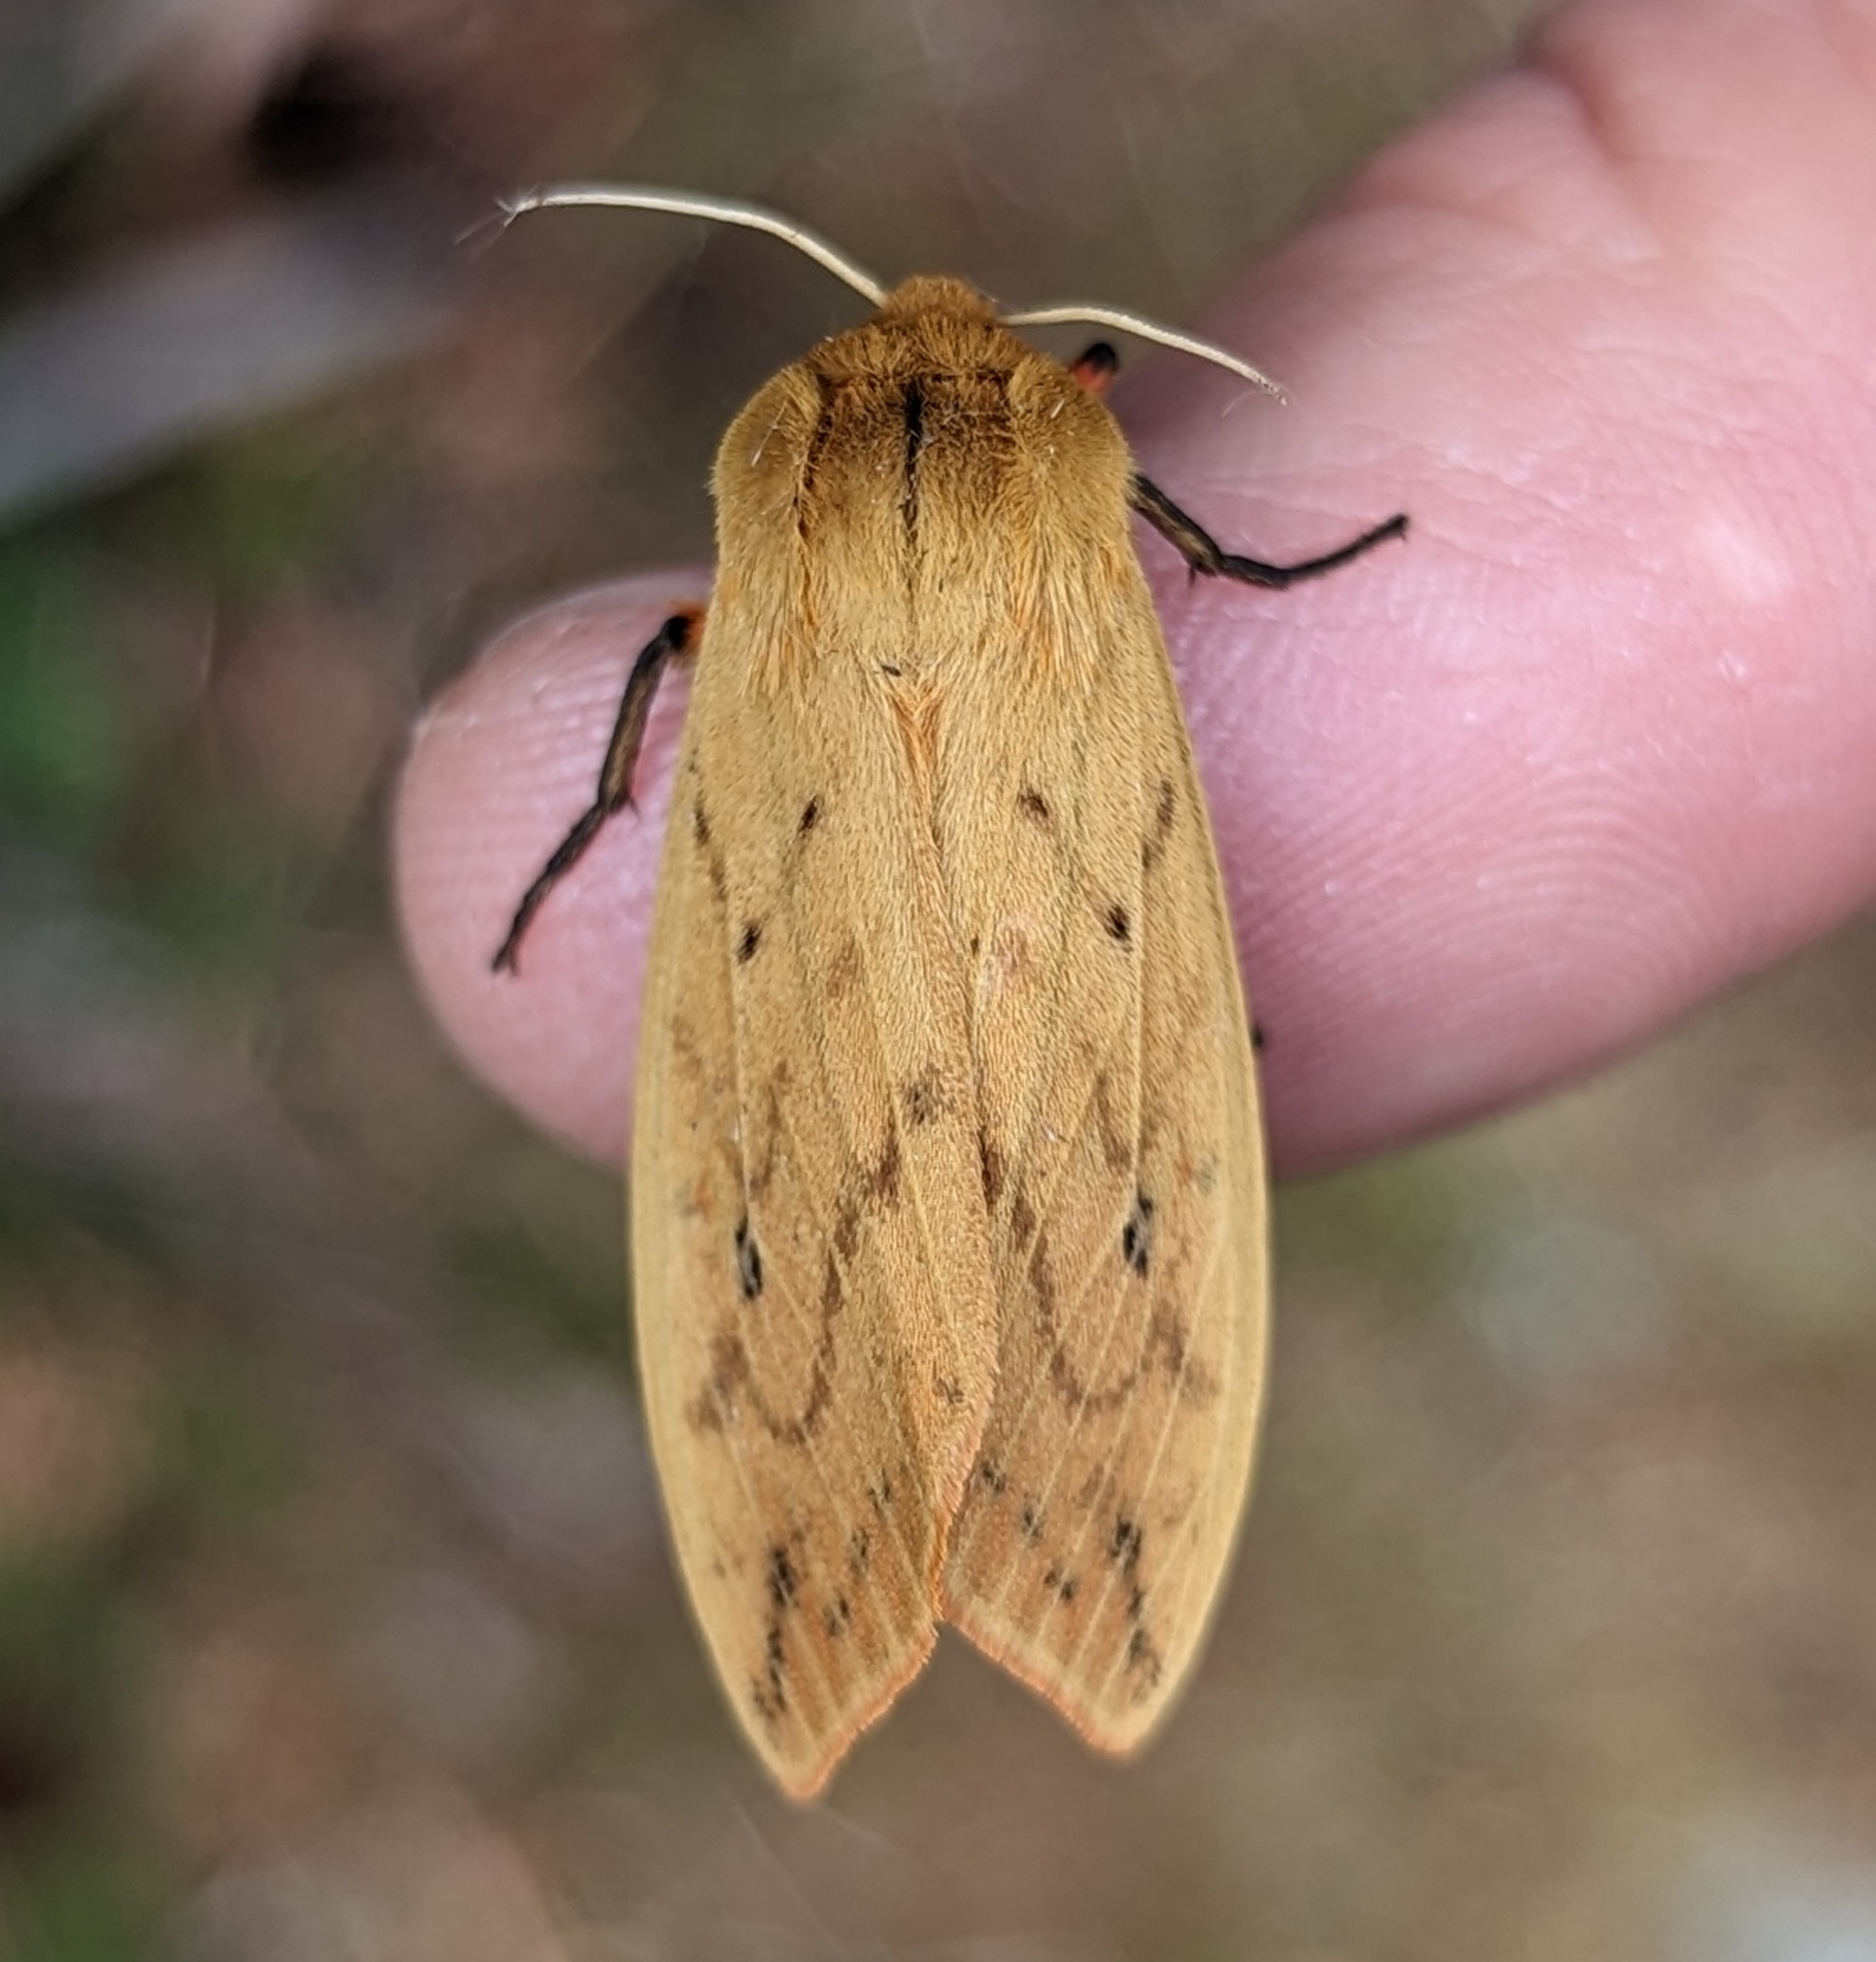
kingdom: Animalia
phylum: Arthropoda
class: Insecta
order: Lepidoptera
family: Erebidae
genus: Pyrrharctia
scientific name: Pyrrharctia isabella
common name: Isabella tiger moth
